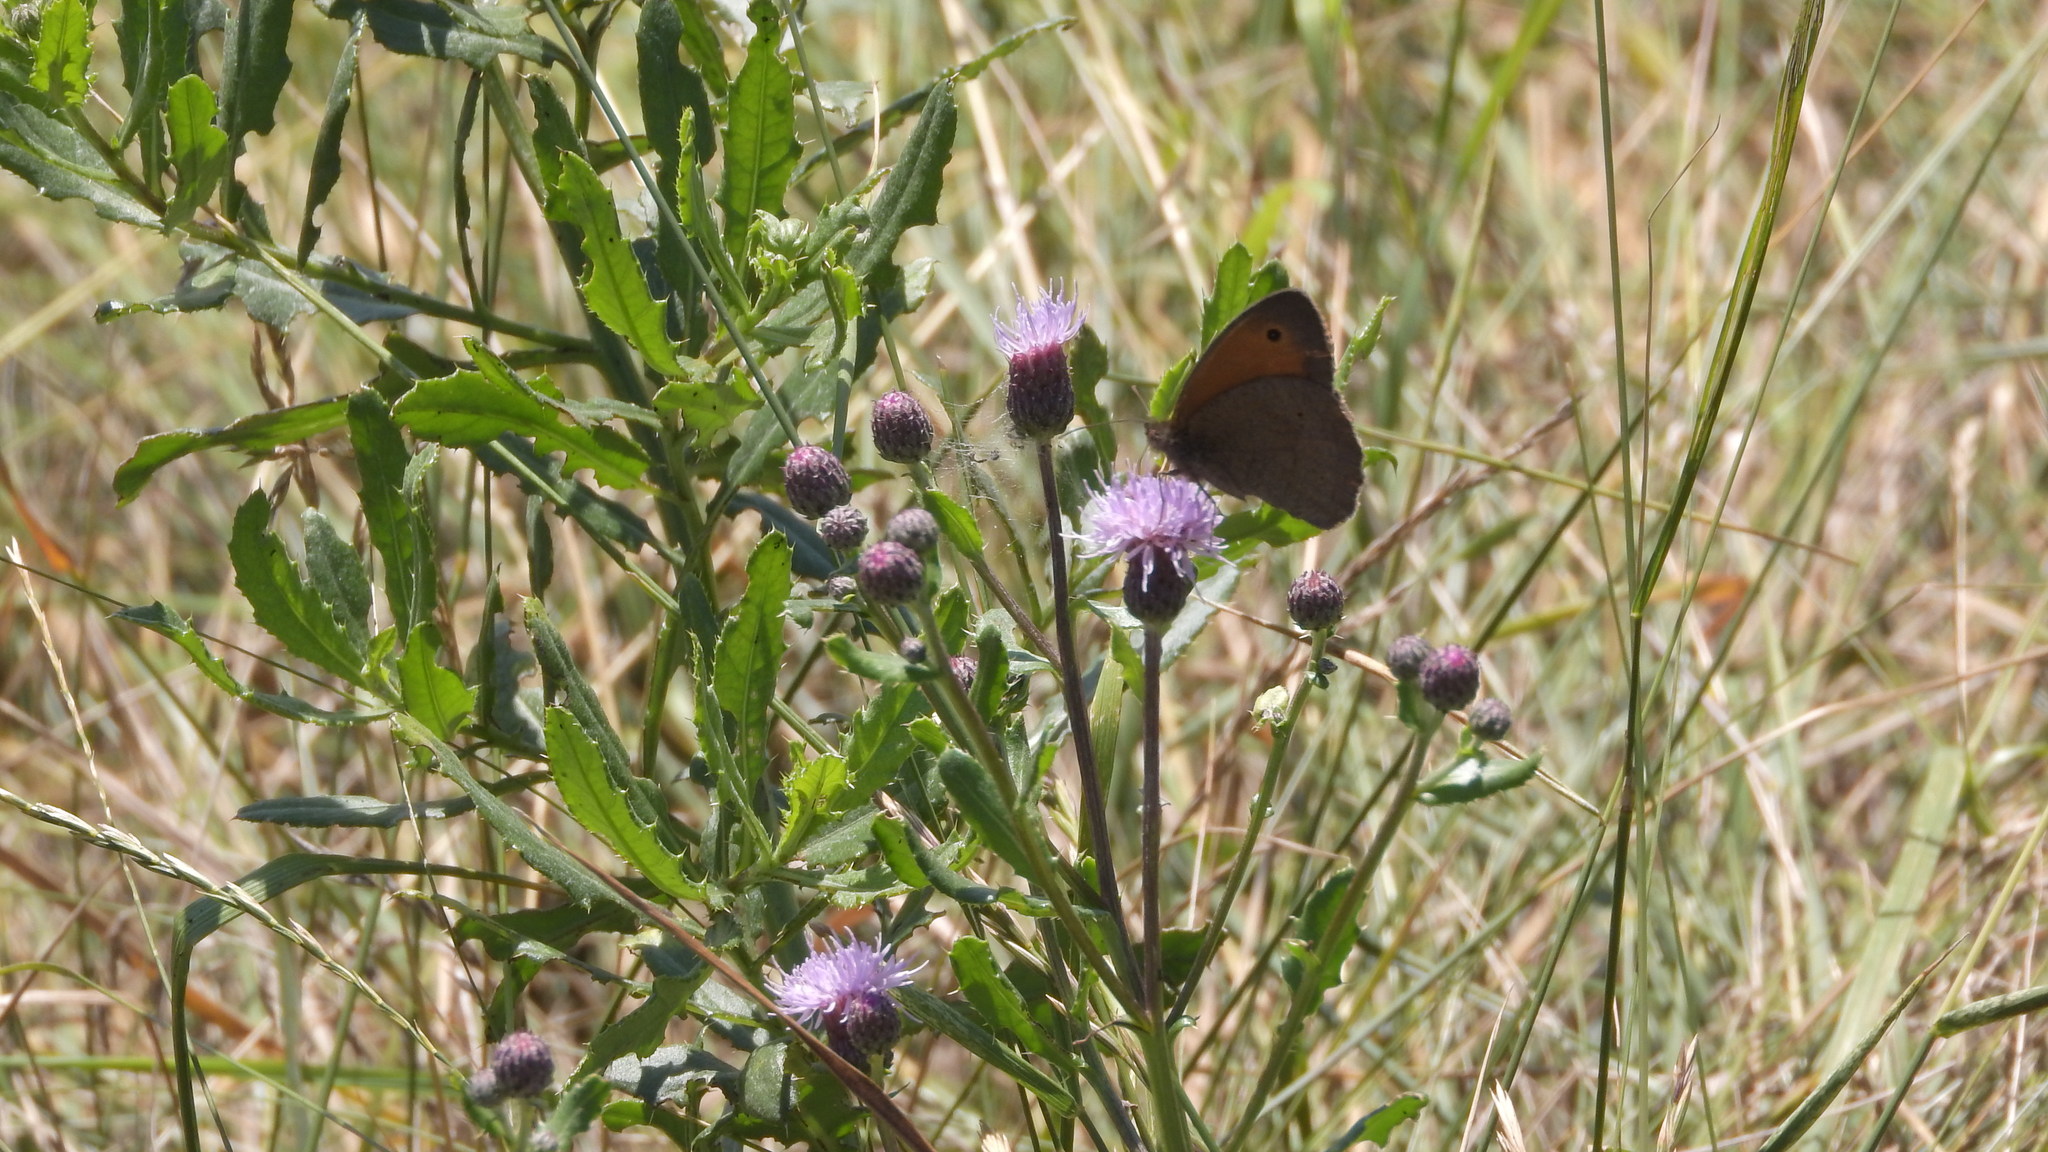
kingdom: Animalia
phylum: Arthropoda
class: Insecta
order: Lepidoptera
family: Nymphalidae
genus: Maniola
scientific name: Maniola jurtina
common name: Meadow brown
